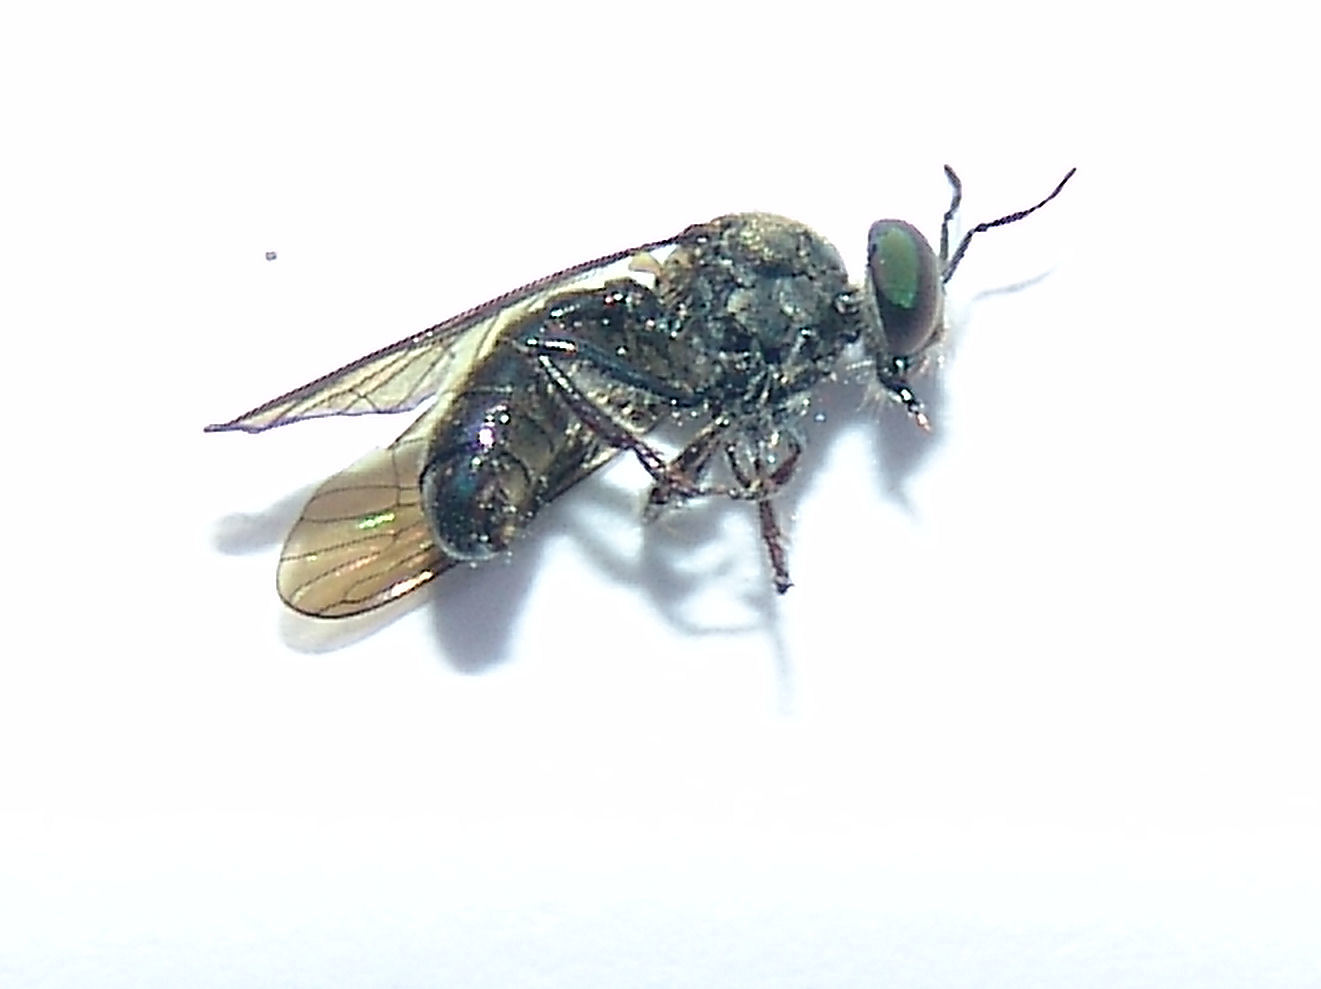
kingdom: Animalia
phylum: Arthropoda
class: Insecta
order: Diptera
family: Asilidae
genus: Cerotainia
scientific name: Cerotainia
